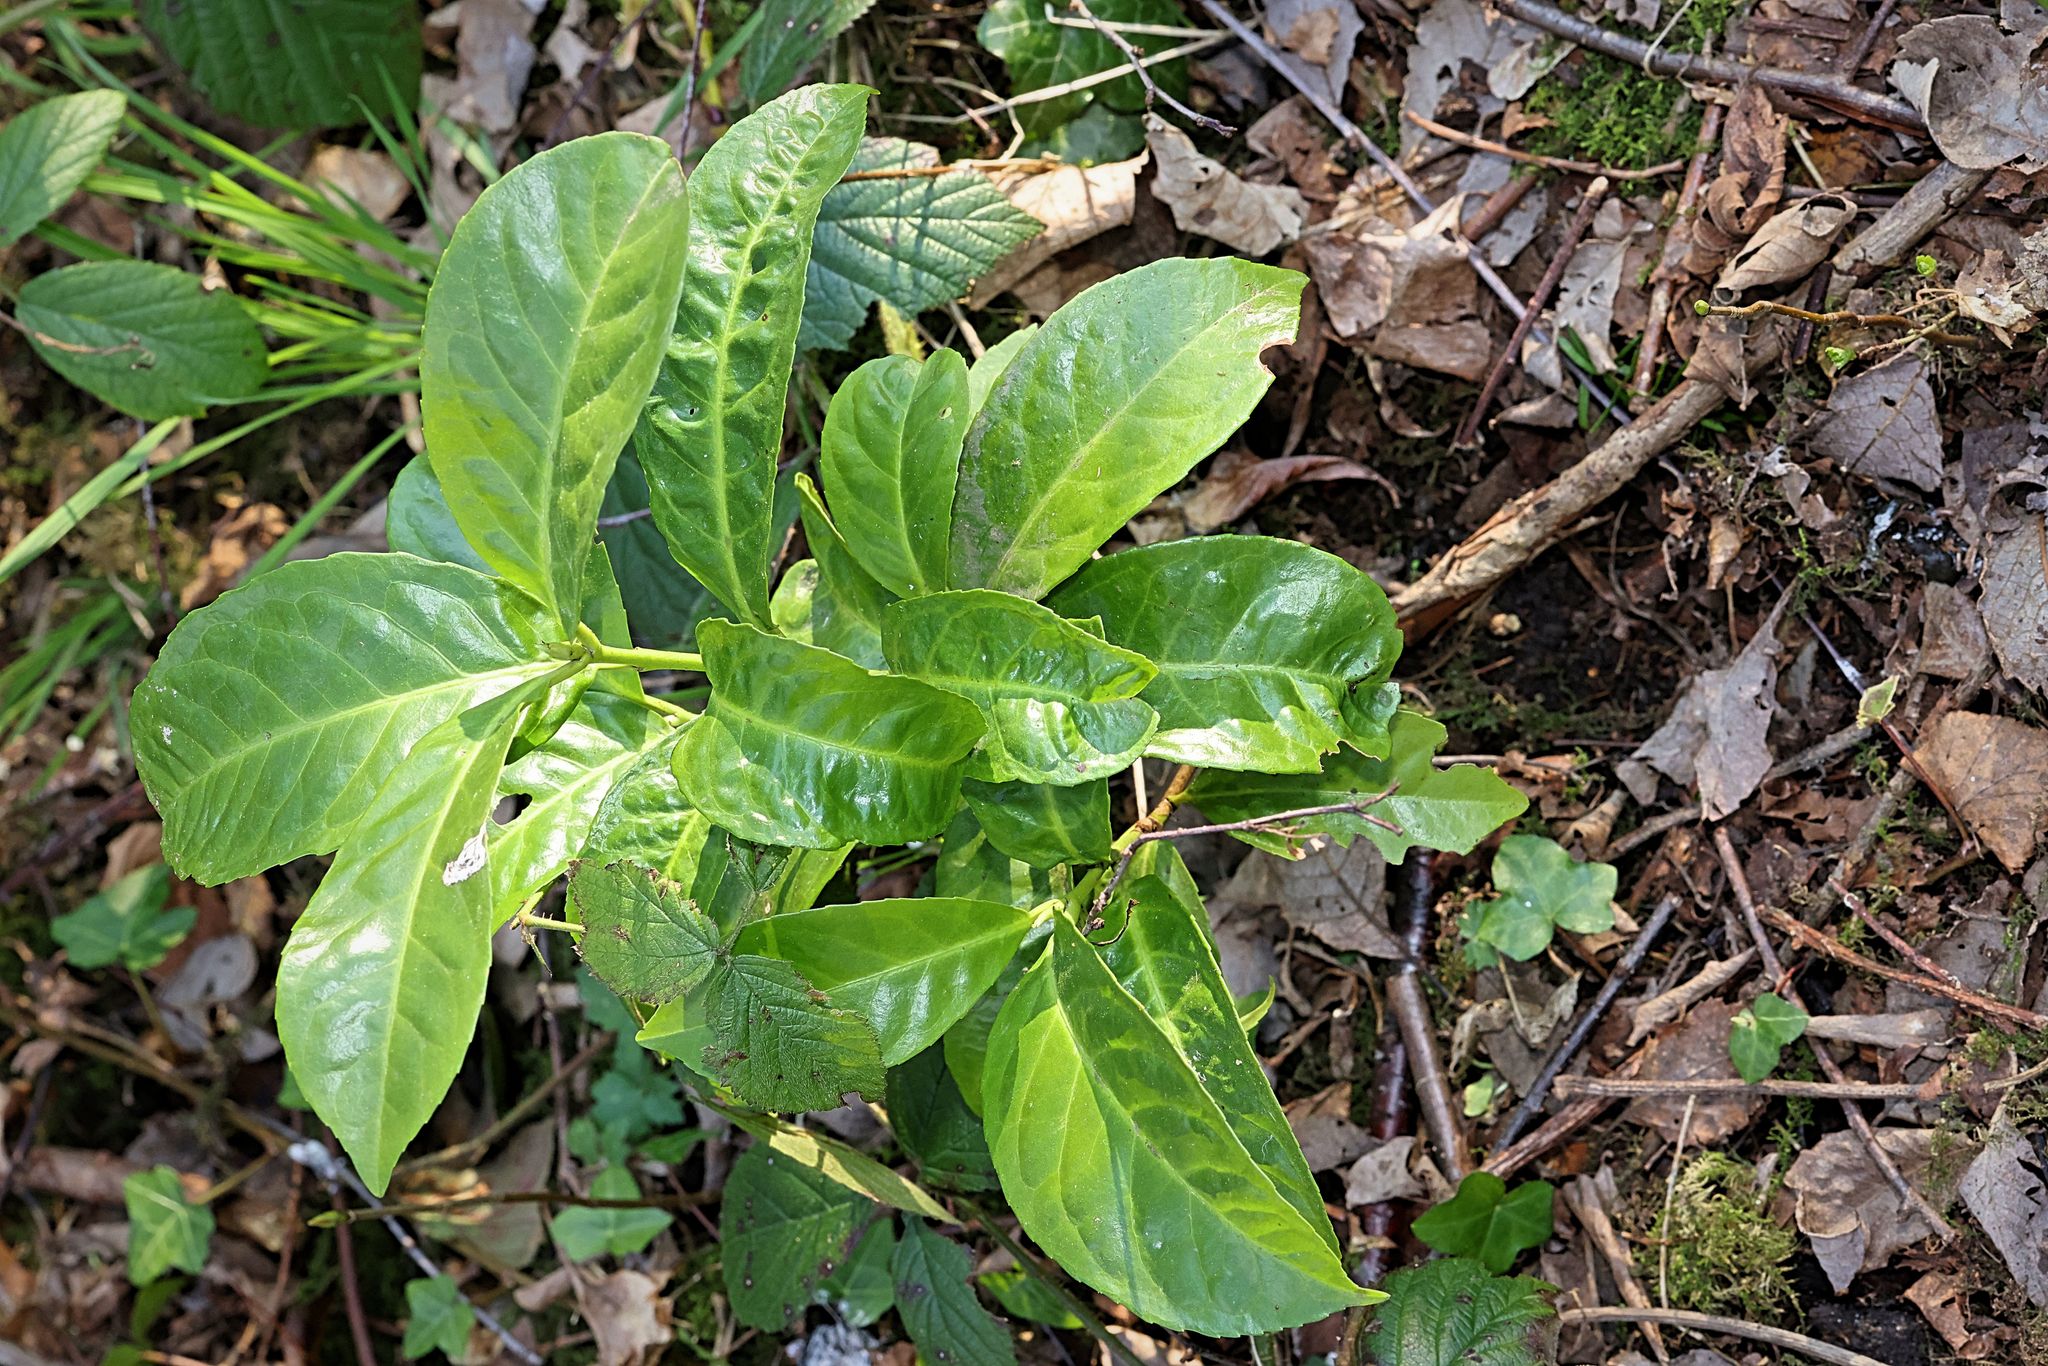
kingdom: Plantae
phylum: Tracheophyta
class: Magnoliopsida
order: Rosales
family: Rosaceae
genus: Prunus
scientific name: Prunus laurocerasus
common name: Cherry laurel
